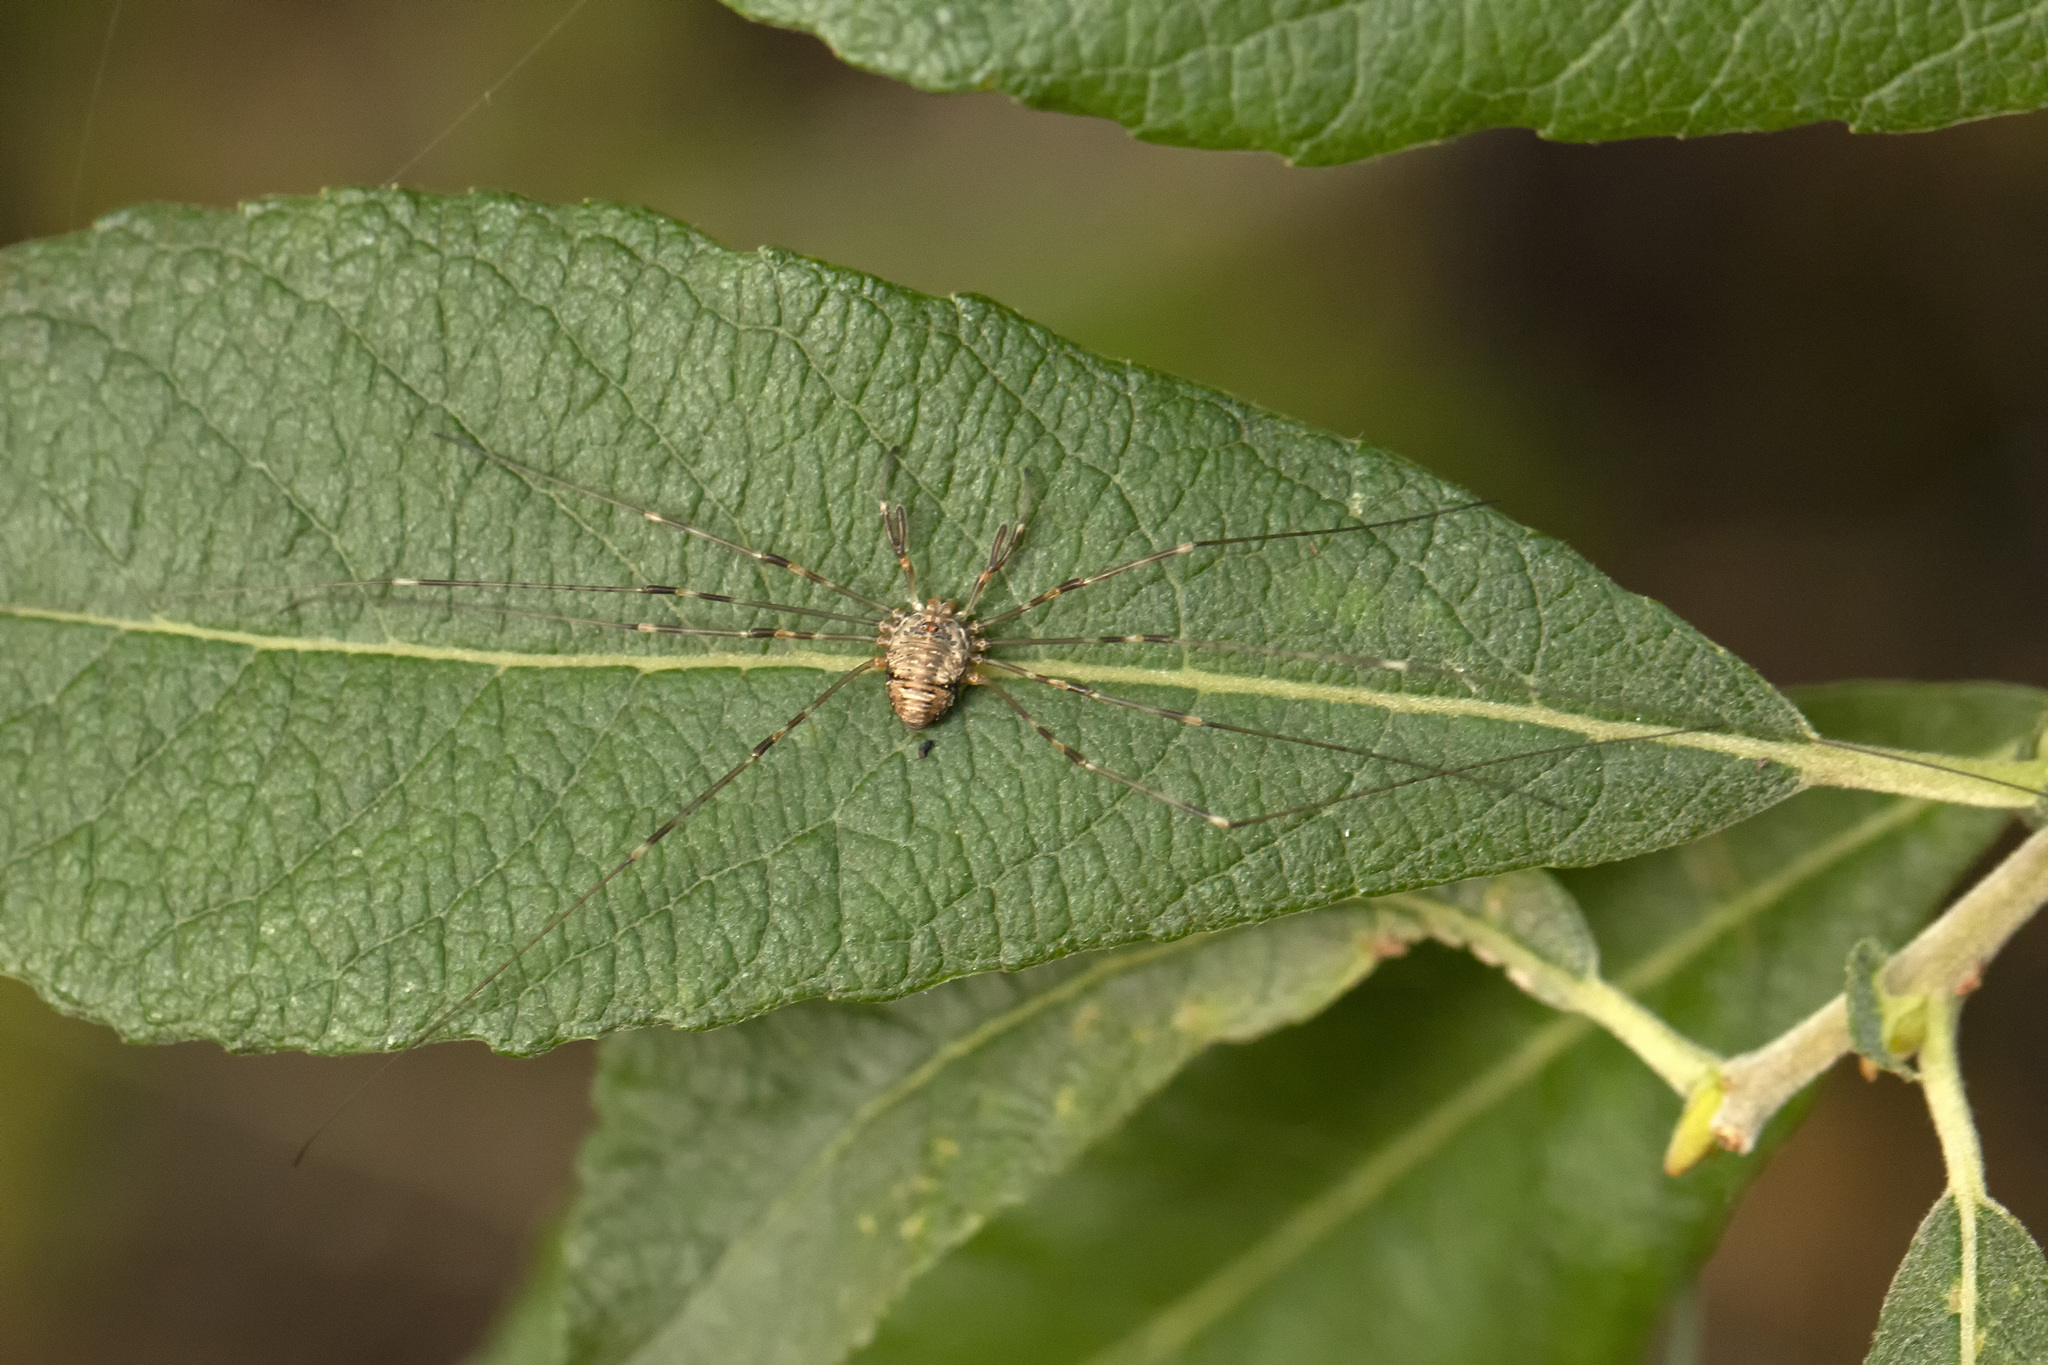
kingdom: Animalia
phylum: Arthropoda
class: Arachnida
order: Opiliones
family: Phalangiidae
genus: Dicranopalpus
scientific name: Dicranopalpus ramosus
